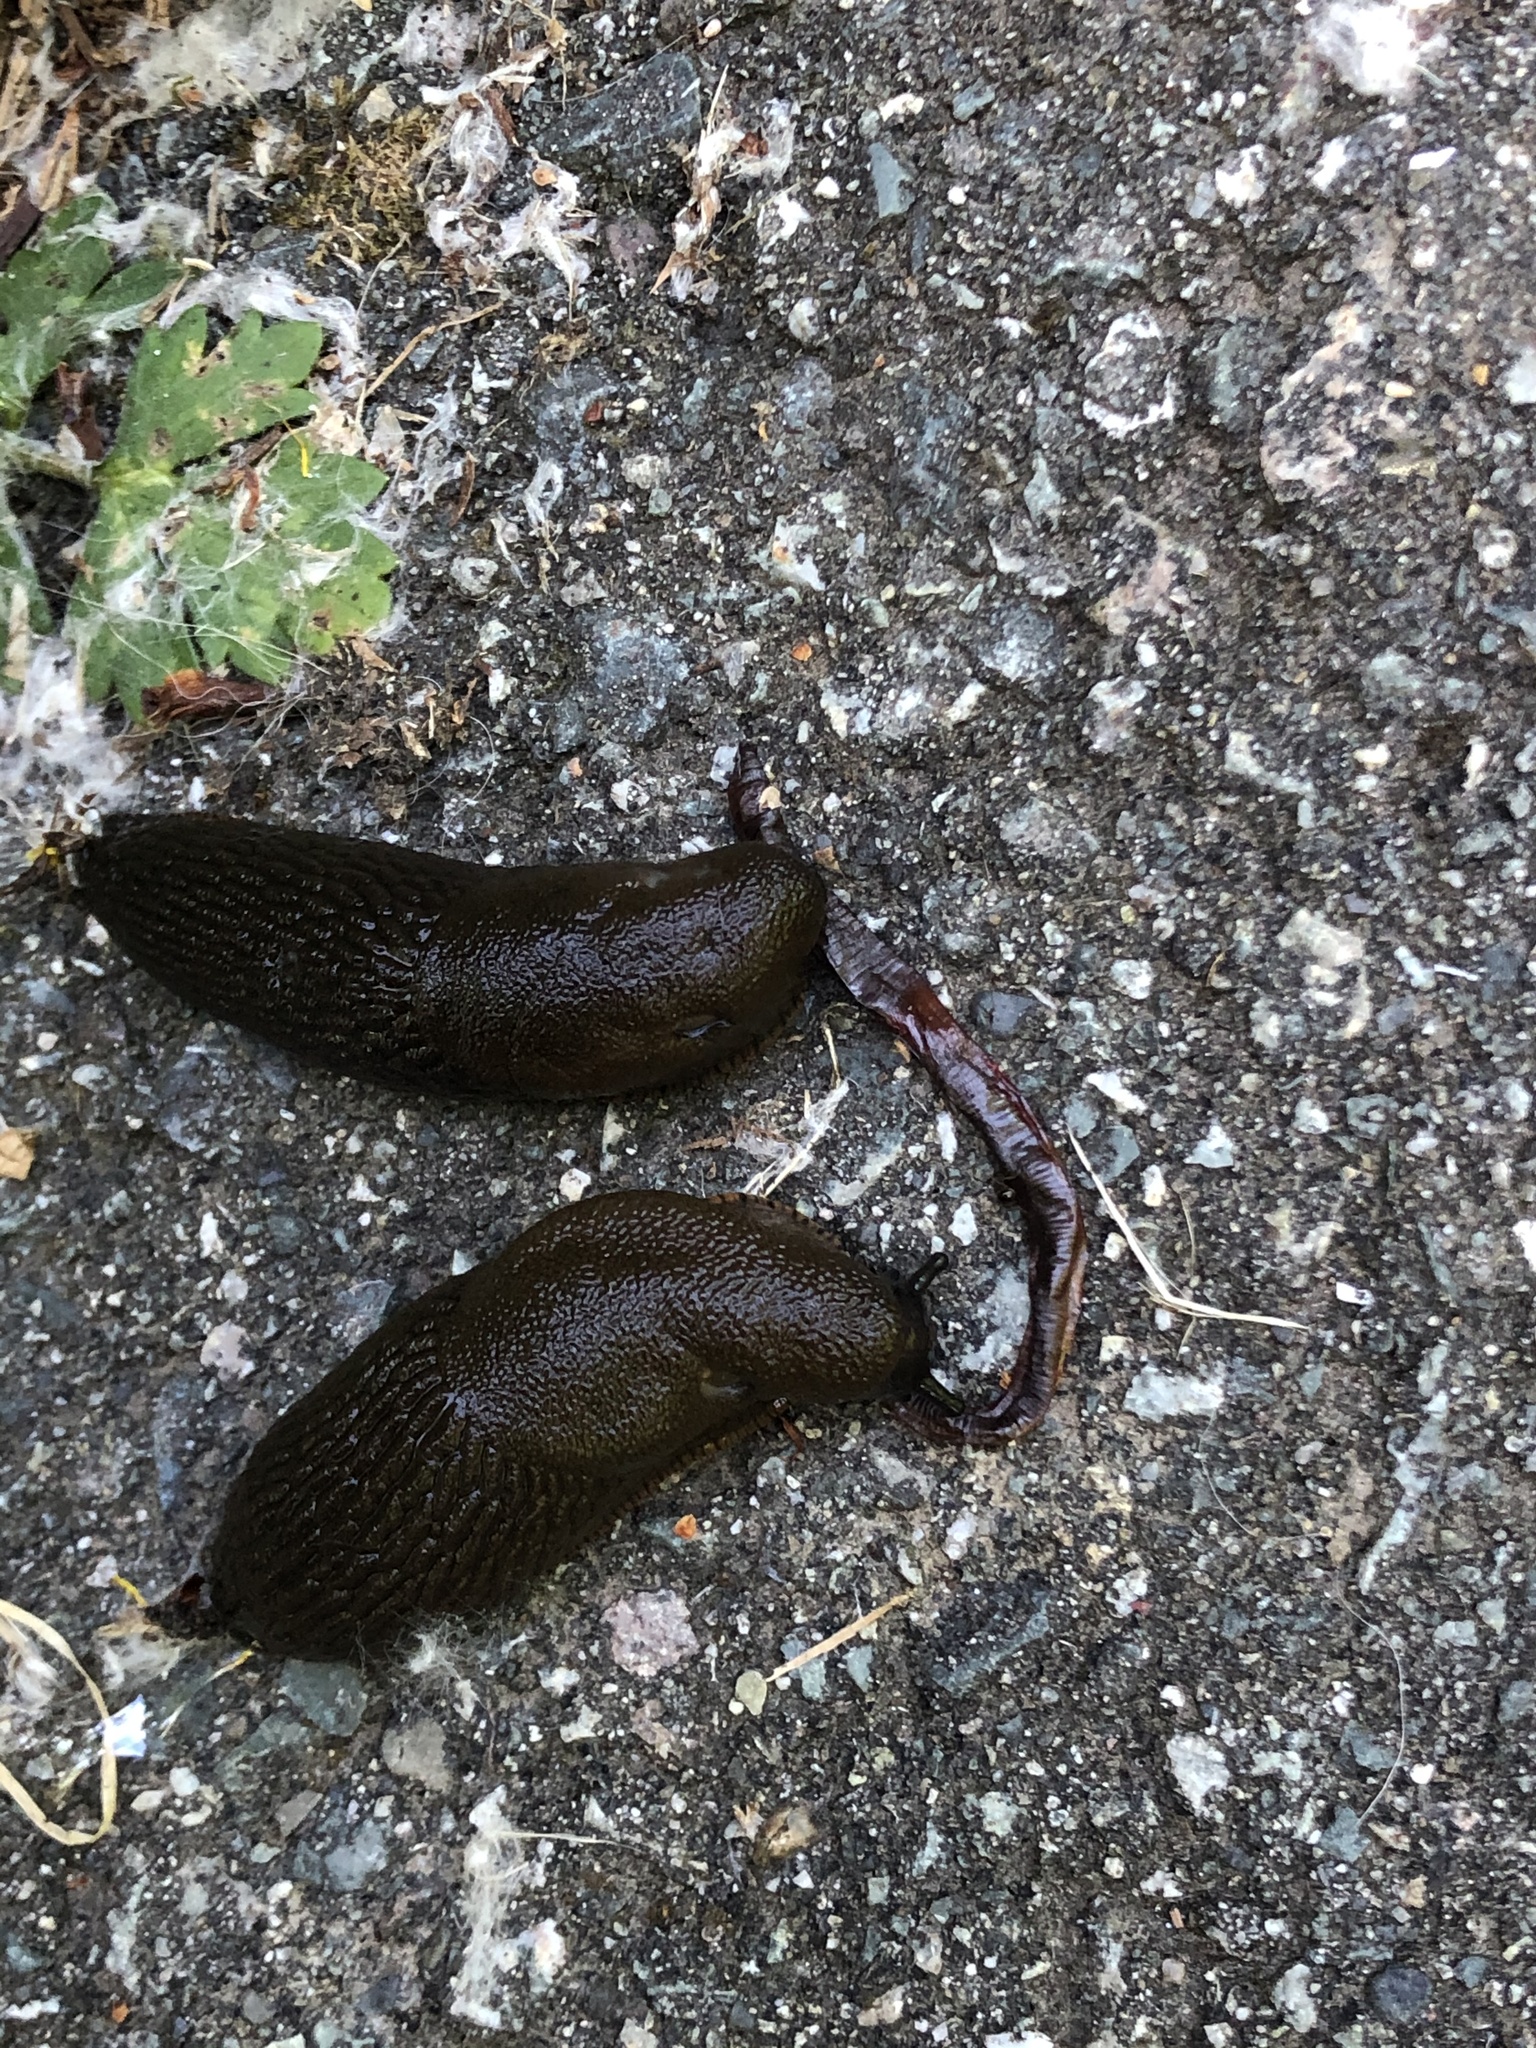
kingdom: Animalia
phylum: Mollusca
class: Gastropoda
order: Stylommatophora
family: Arionidae
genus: Arion
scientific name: Arion rufus
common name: Chocolate arion
